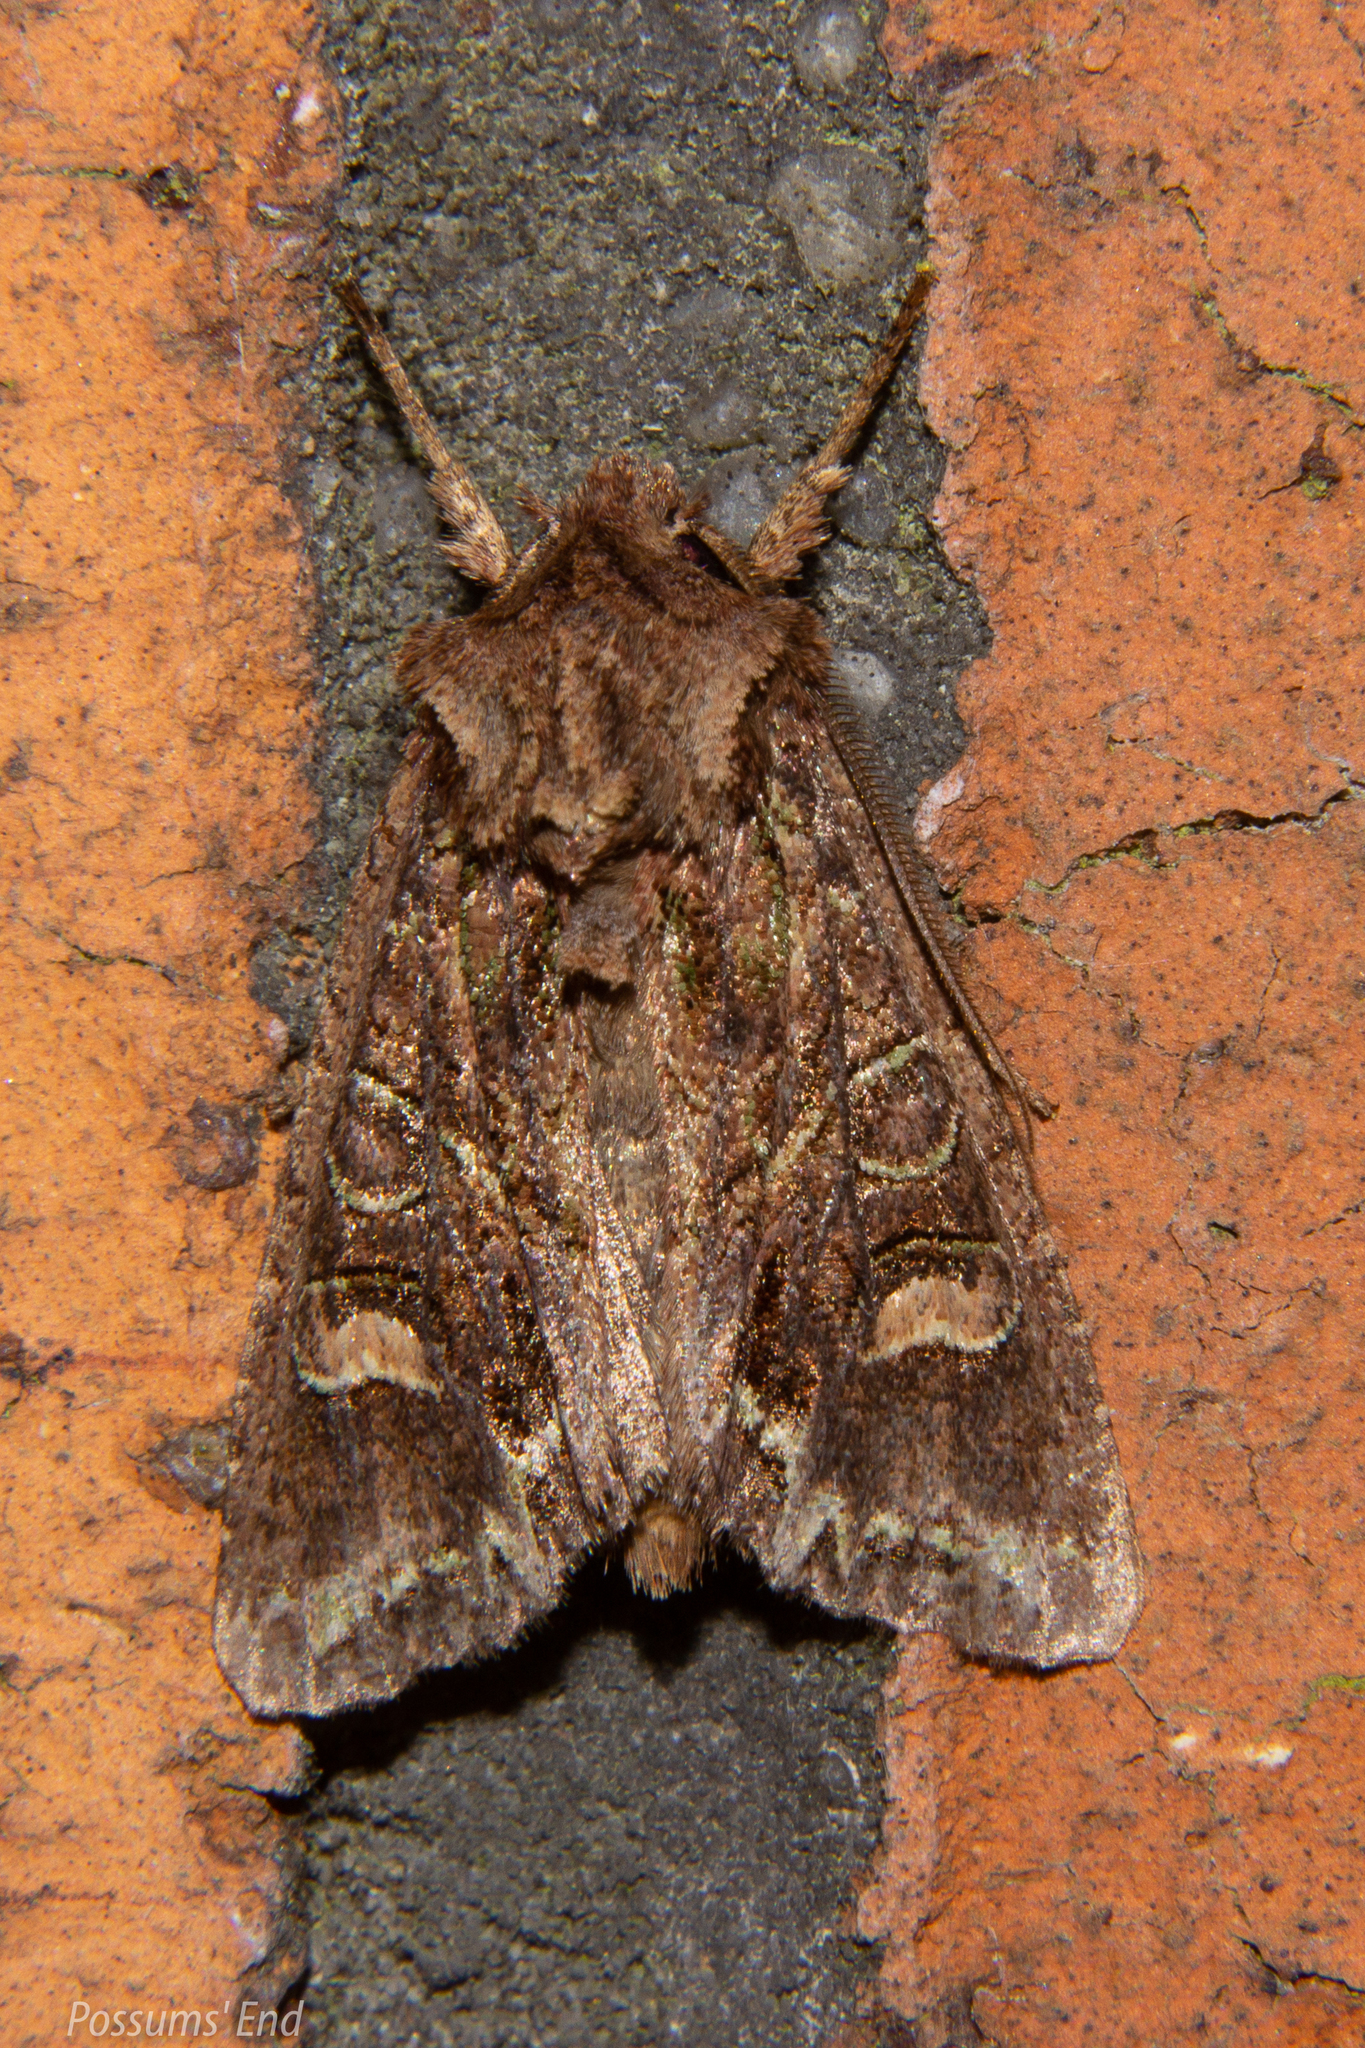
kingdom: Animalia
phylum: Arthropoda
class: Insecta
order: Lepidoptera
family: Noctuidae
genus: Meterana
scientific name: Meterana diatmeta
